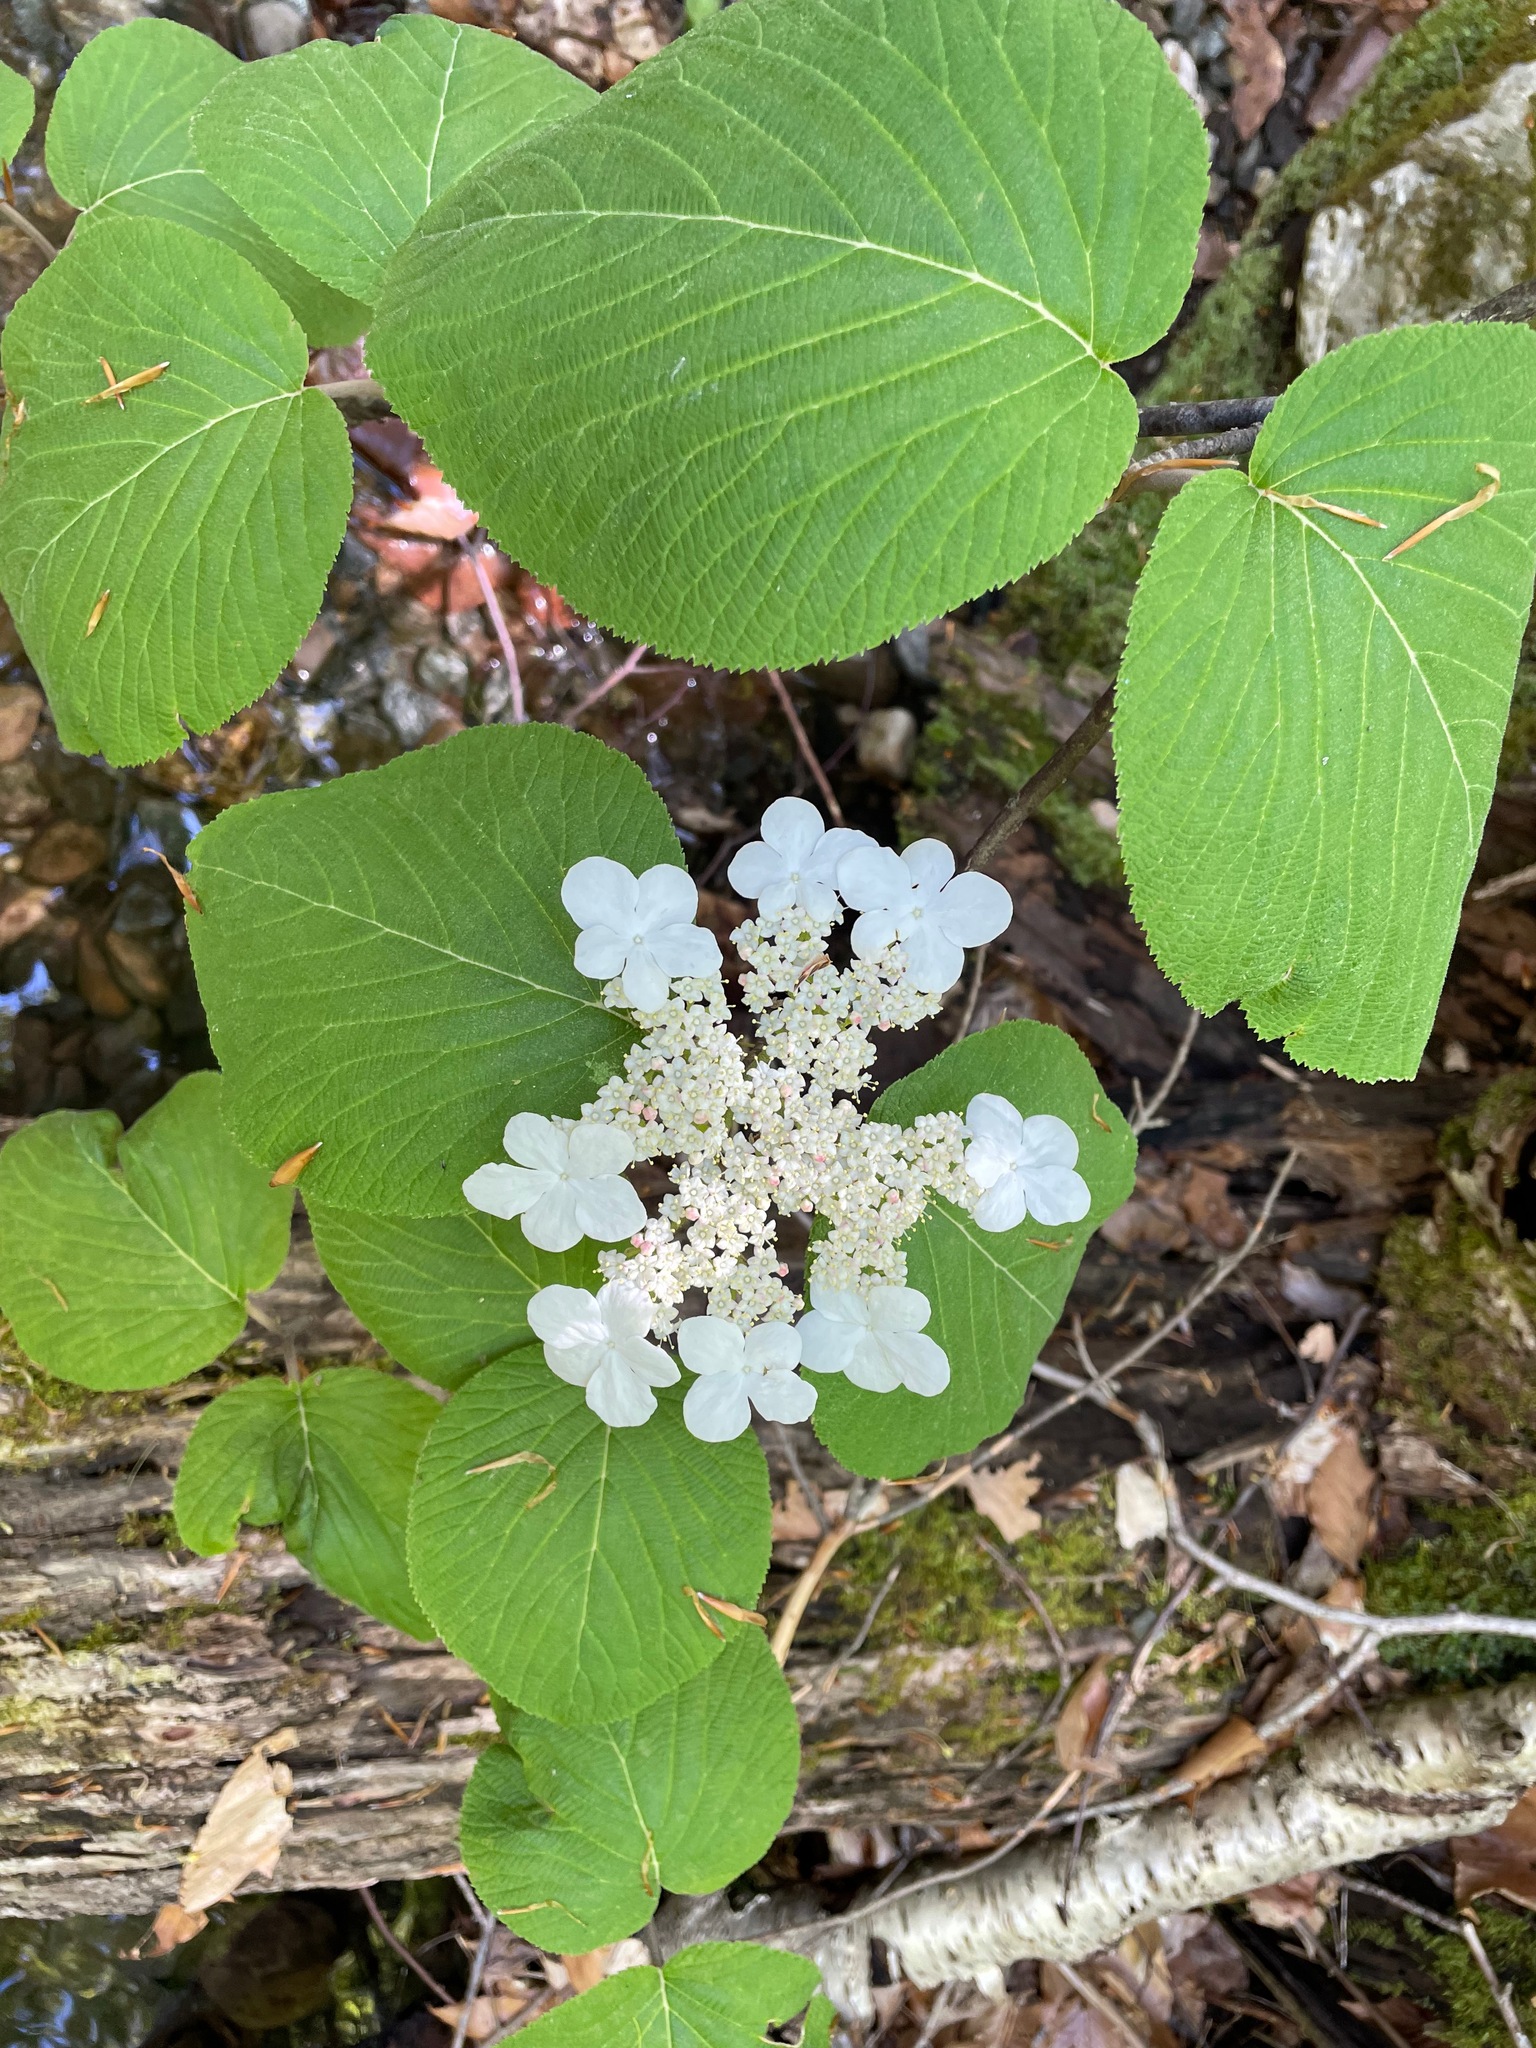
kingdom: Plantae
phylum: Tracheophyta
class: Magnoliopsida
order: Dipsacales
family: Viburnaceae
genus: Viburnum
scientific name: Viburnum lantanoides
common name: Hobblebush
